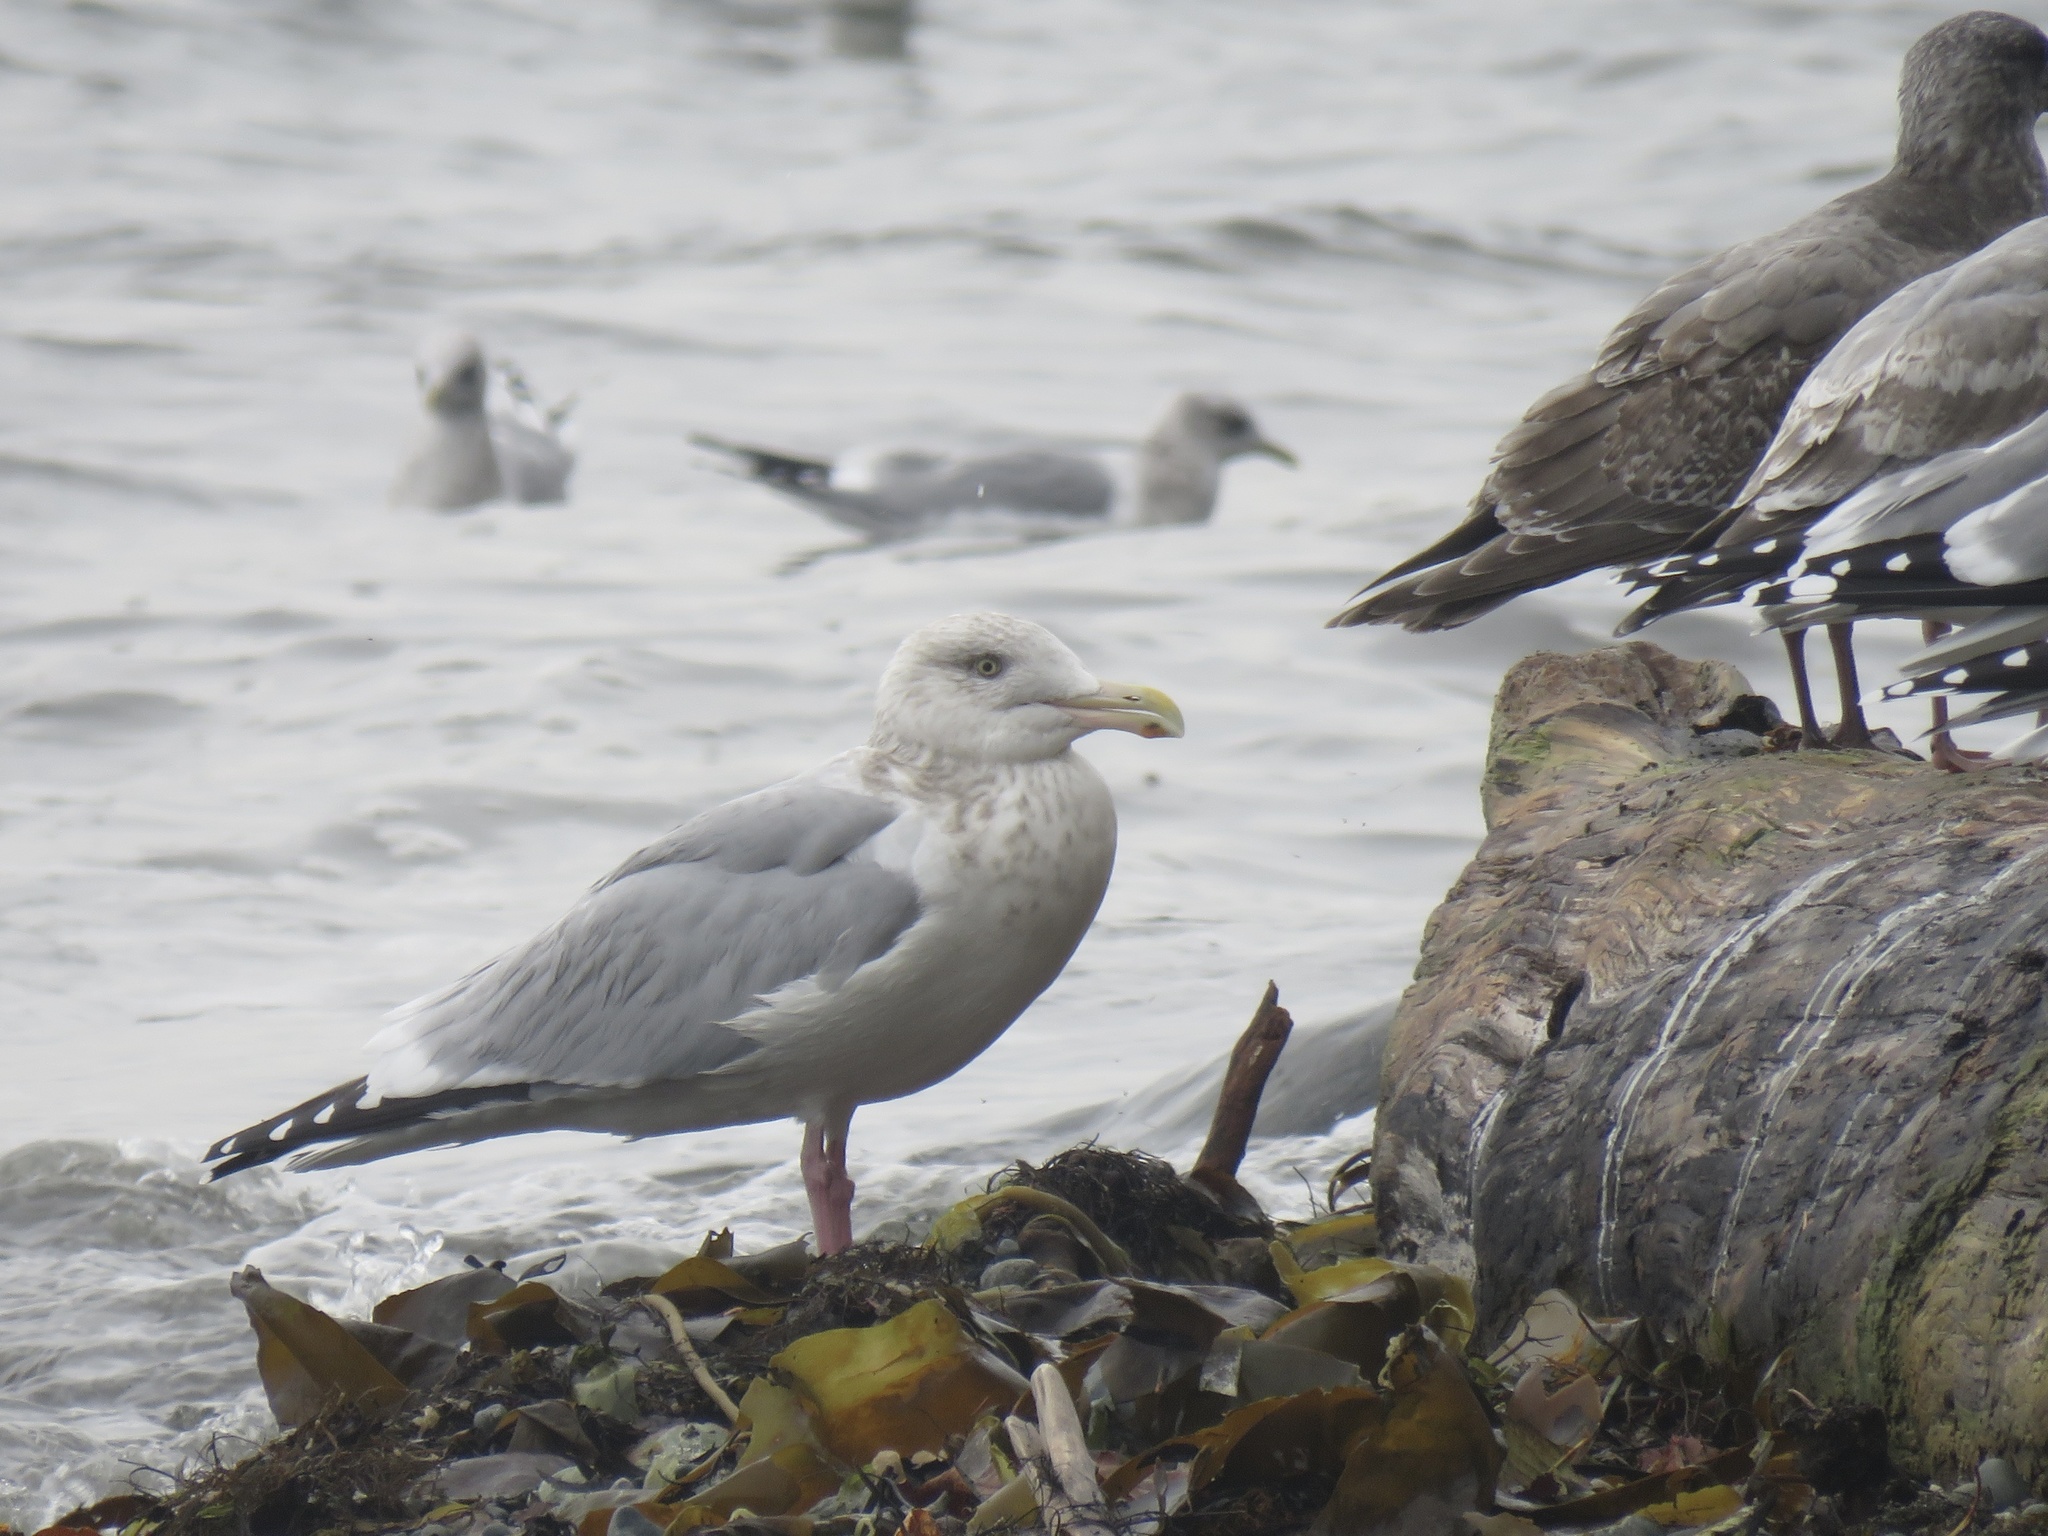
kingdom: Animalia
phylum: Chordata
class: Aves
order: Charadriiformes
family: Laridae
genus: Larus
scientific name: Larus argentatus
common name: Herring gull
